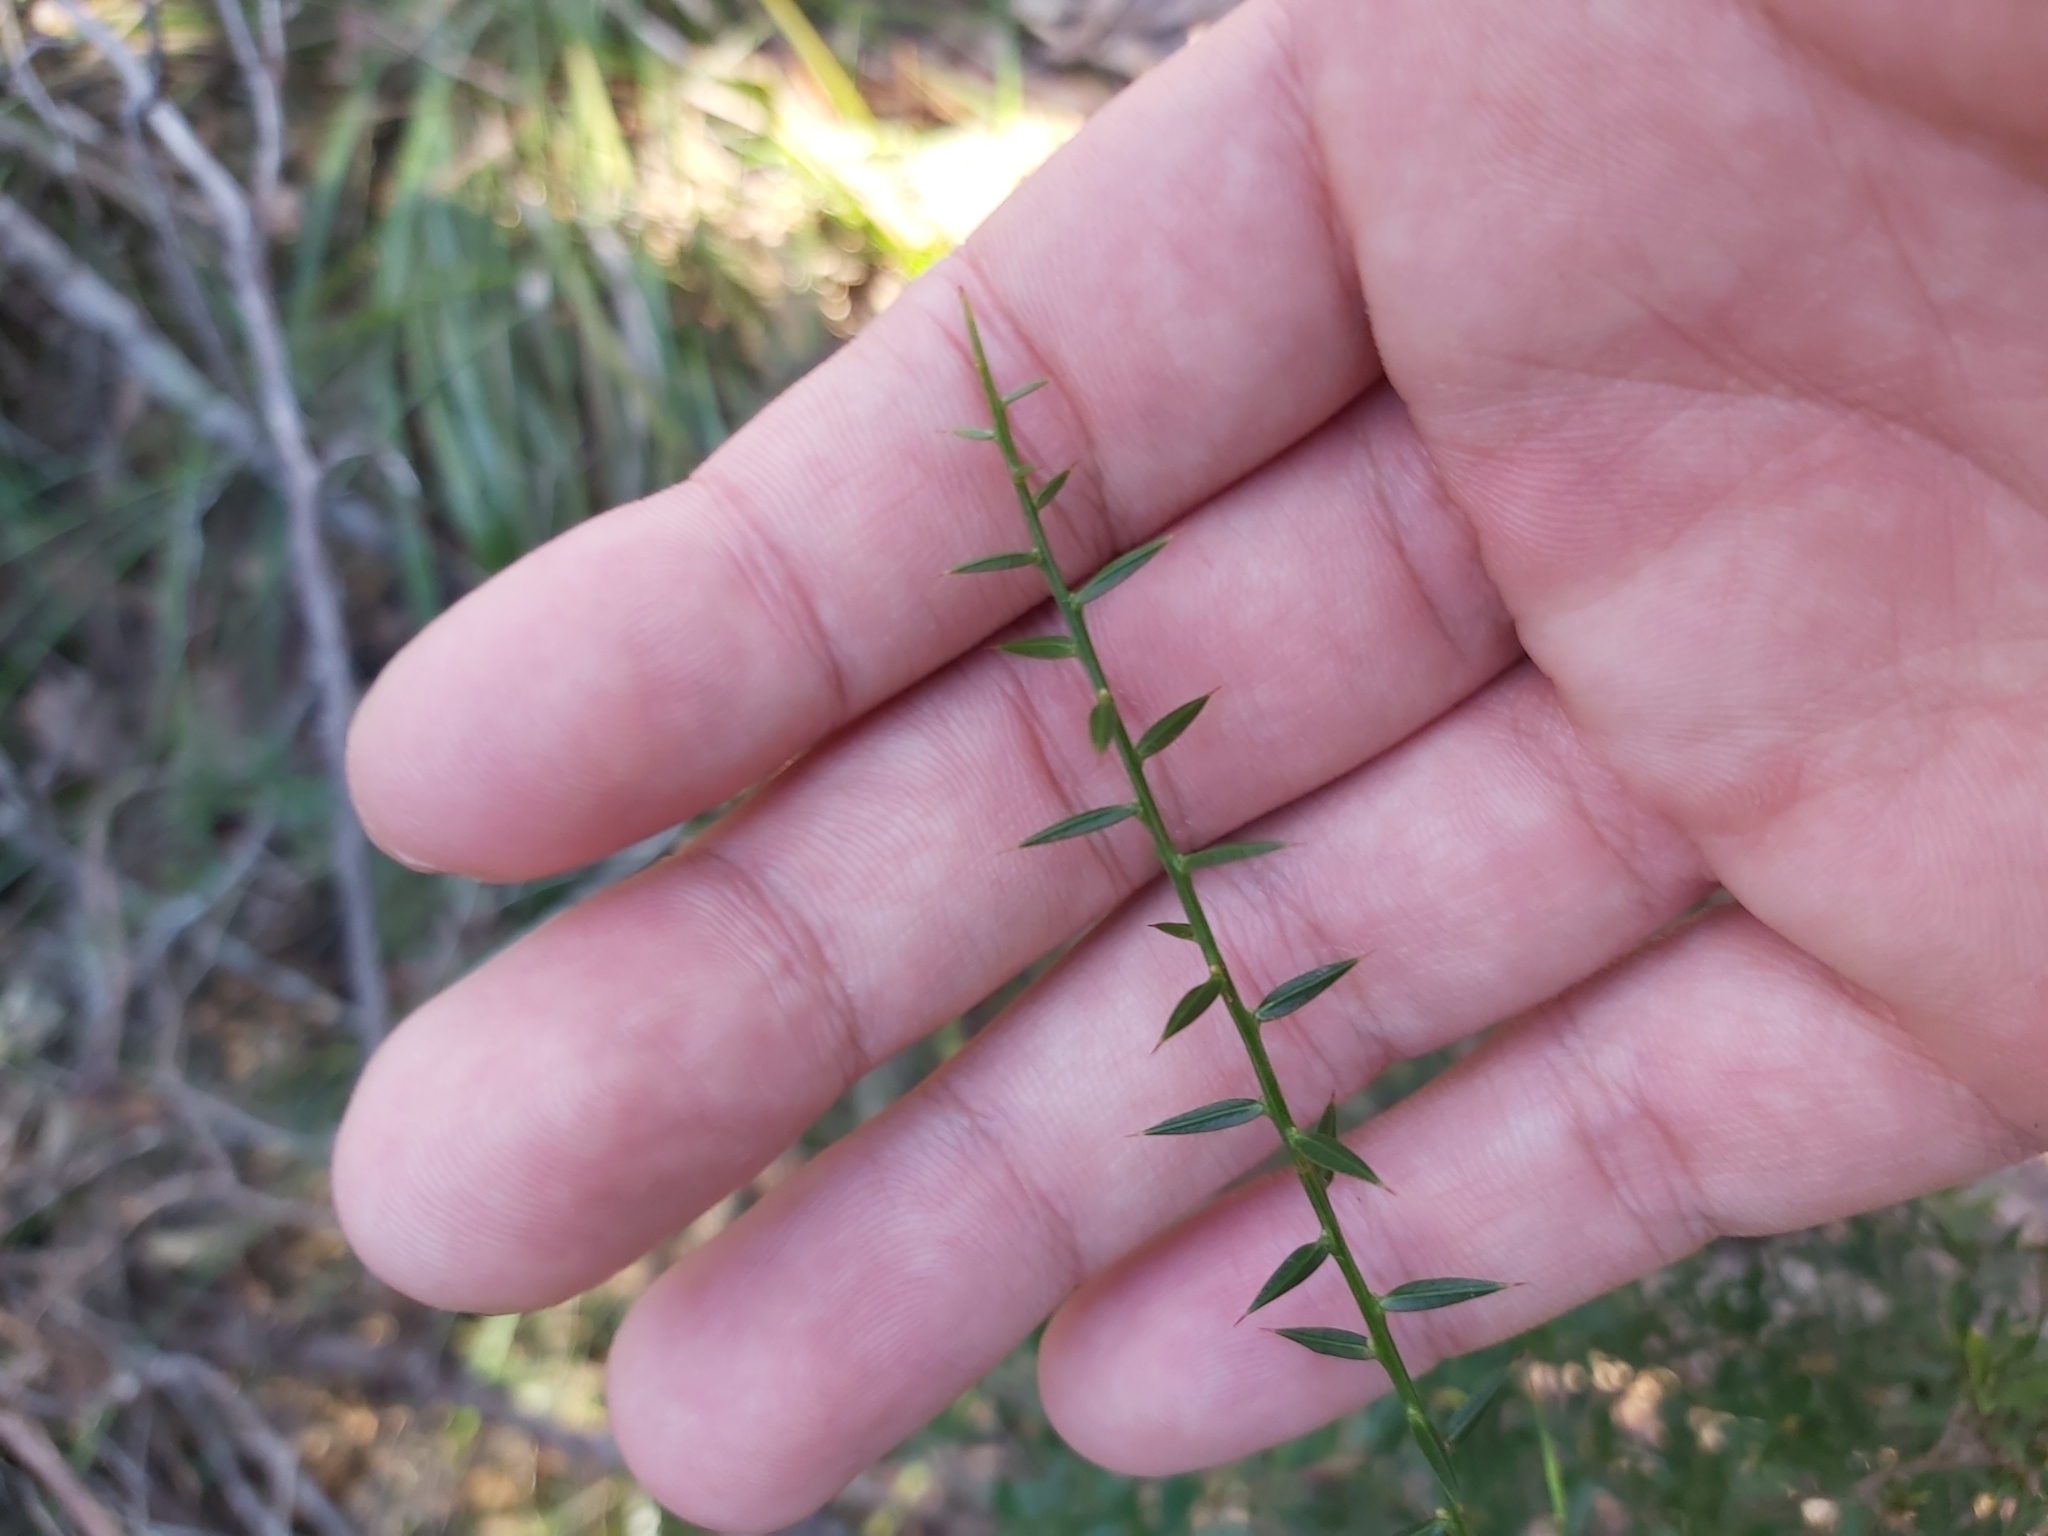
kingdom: Plantae
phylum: Tracheophyta
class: Magnoliopsida
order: Fabales
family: Fabaceae
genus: Daviesia
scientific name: Daviesia ulicifolia
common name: Gorse bitter-pea
